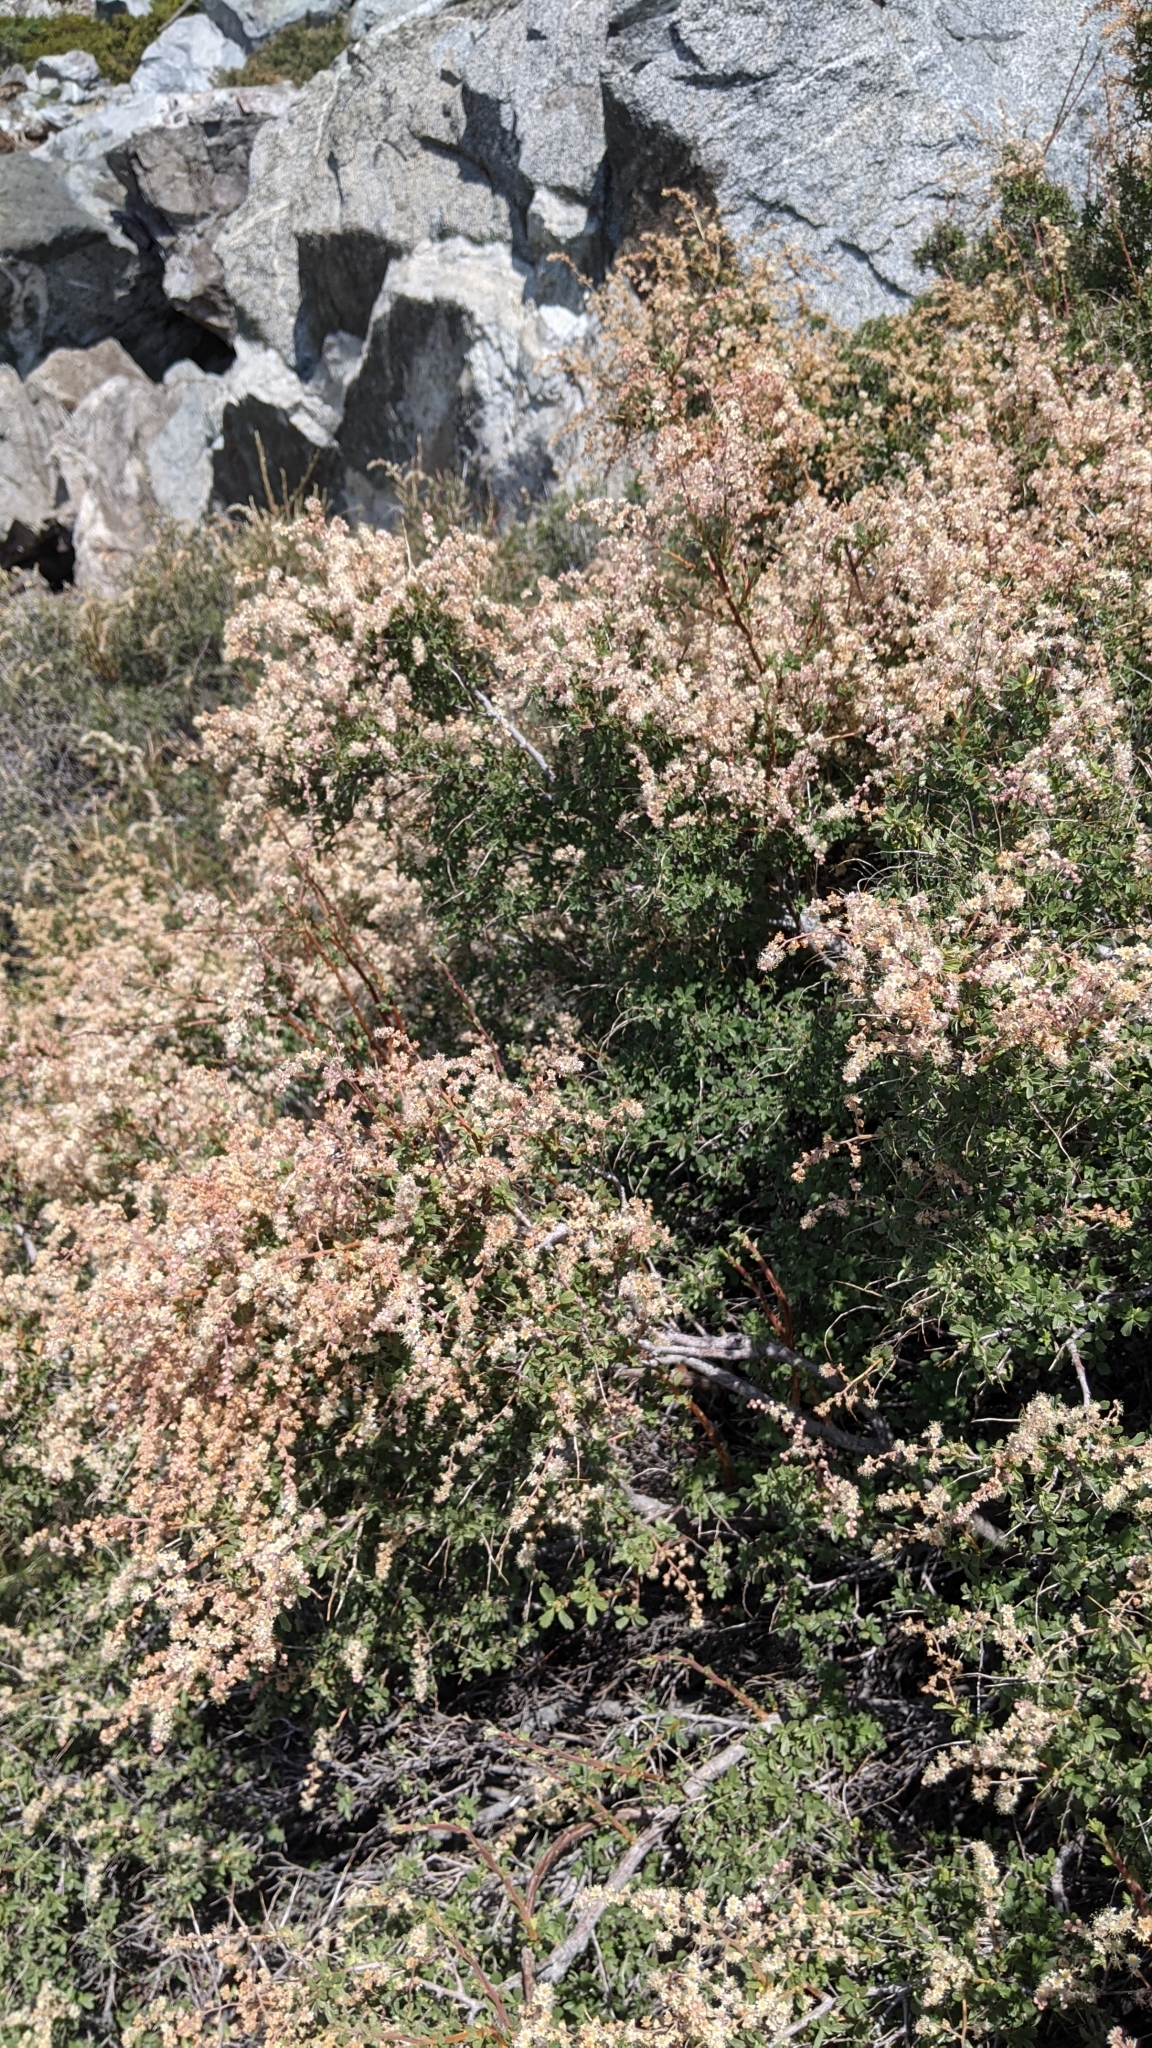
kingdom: Plantae
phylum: Tracheophyta
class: Magnoliopsida
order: Rosales
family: Rosaceae
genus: Holodiscus
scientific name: Holodiscus discolor
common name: Oceanspray
